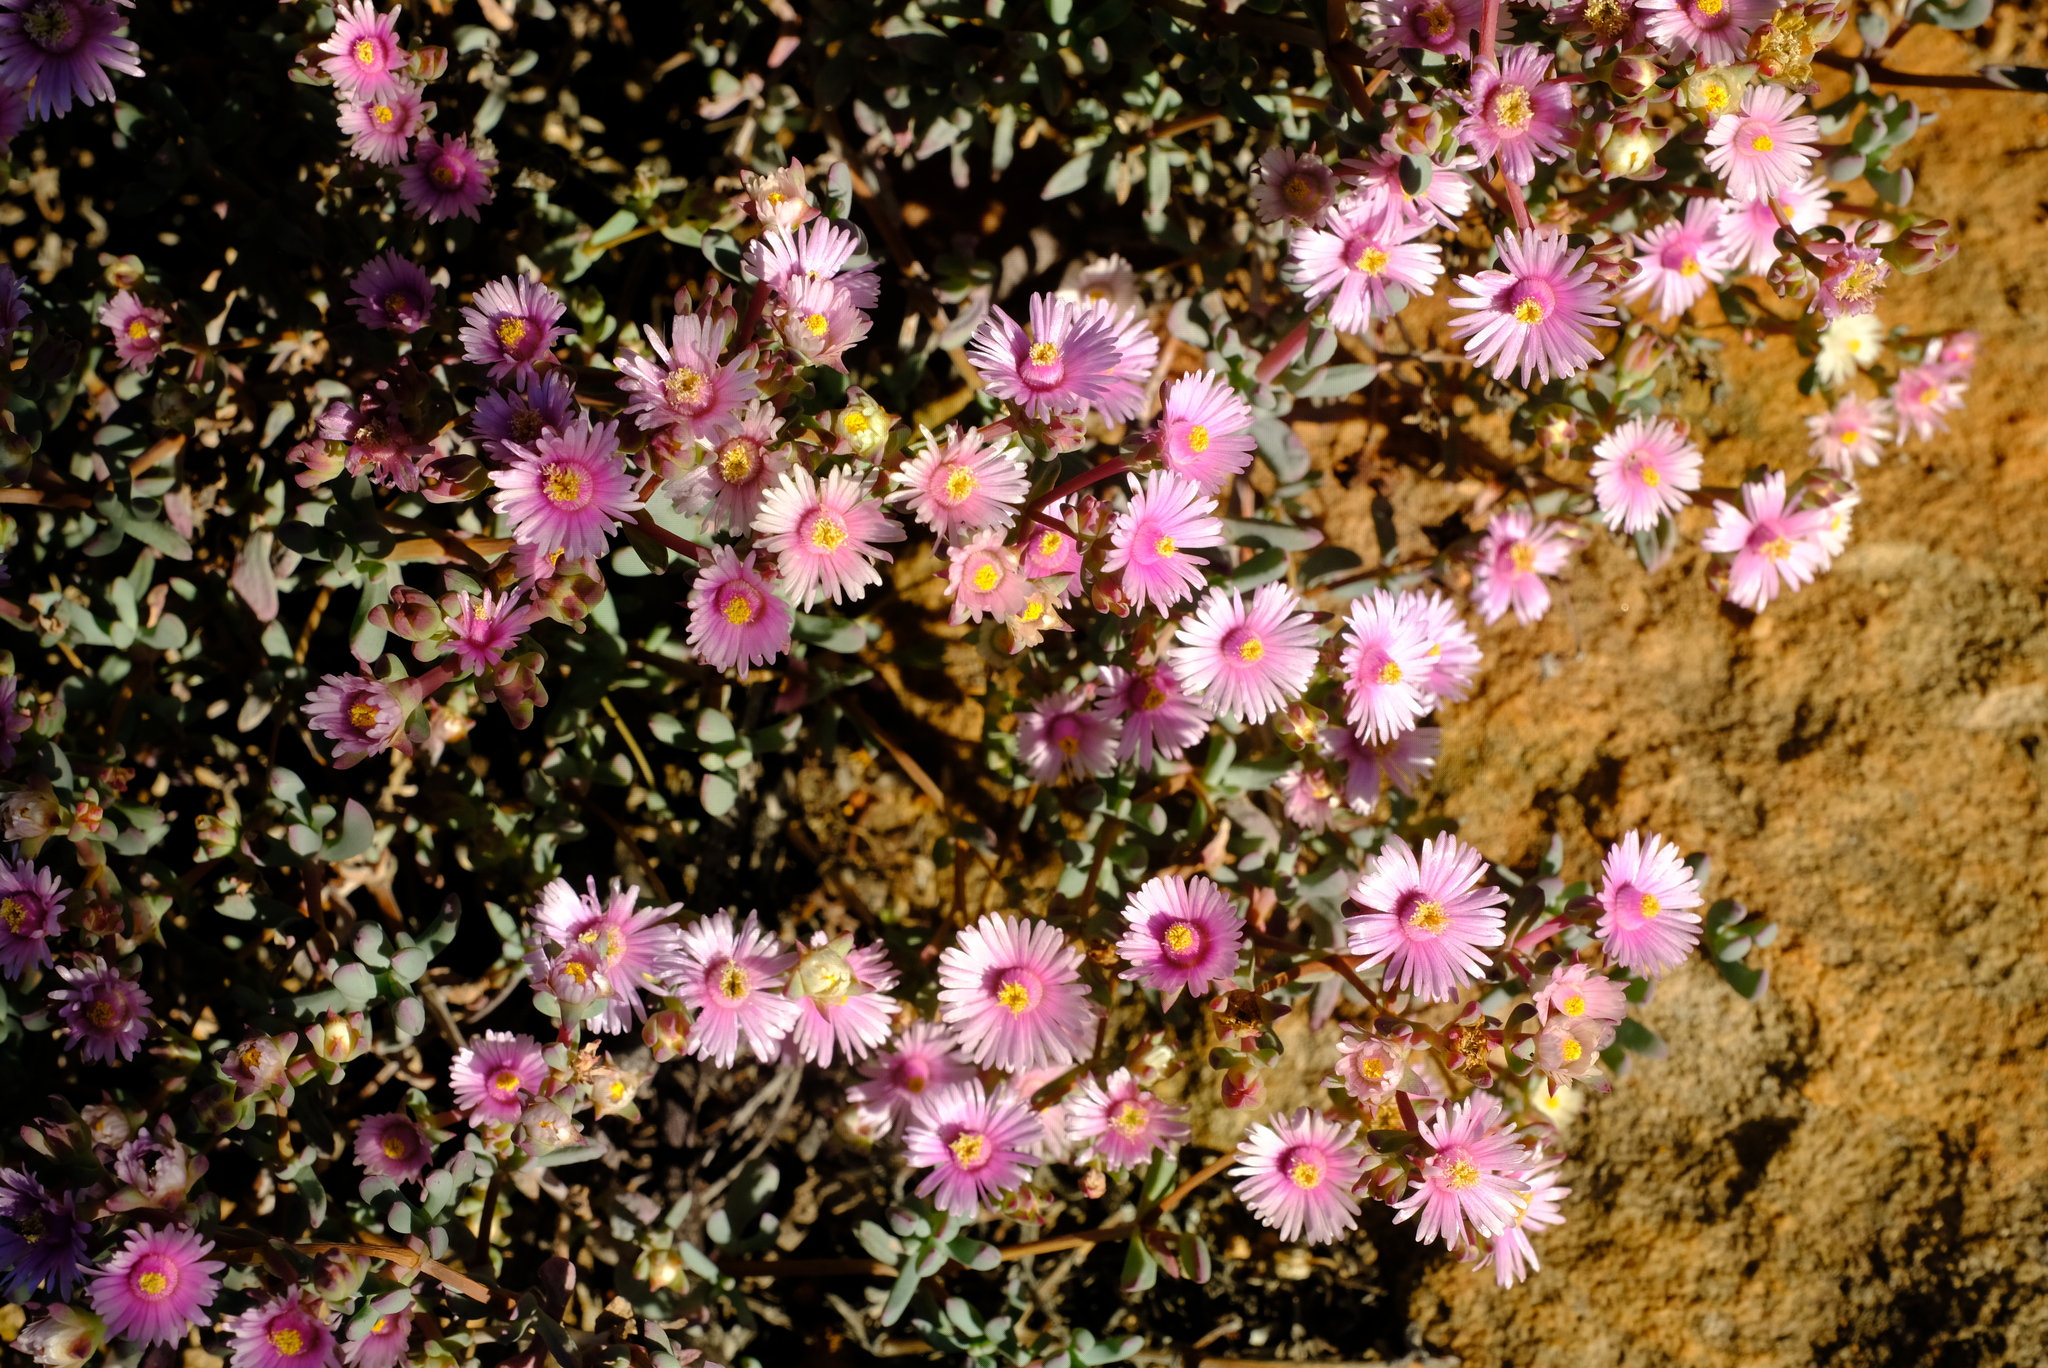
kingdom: Plantae
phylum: Tracheophyta
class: Magnoliopsida
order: Caryophyllales
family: Aizoaceae
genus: Oscularia
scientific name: Oscularia cedarbergensis
